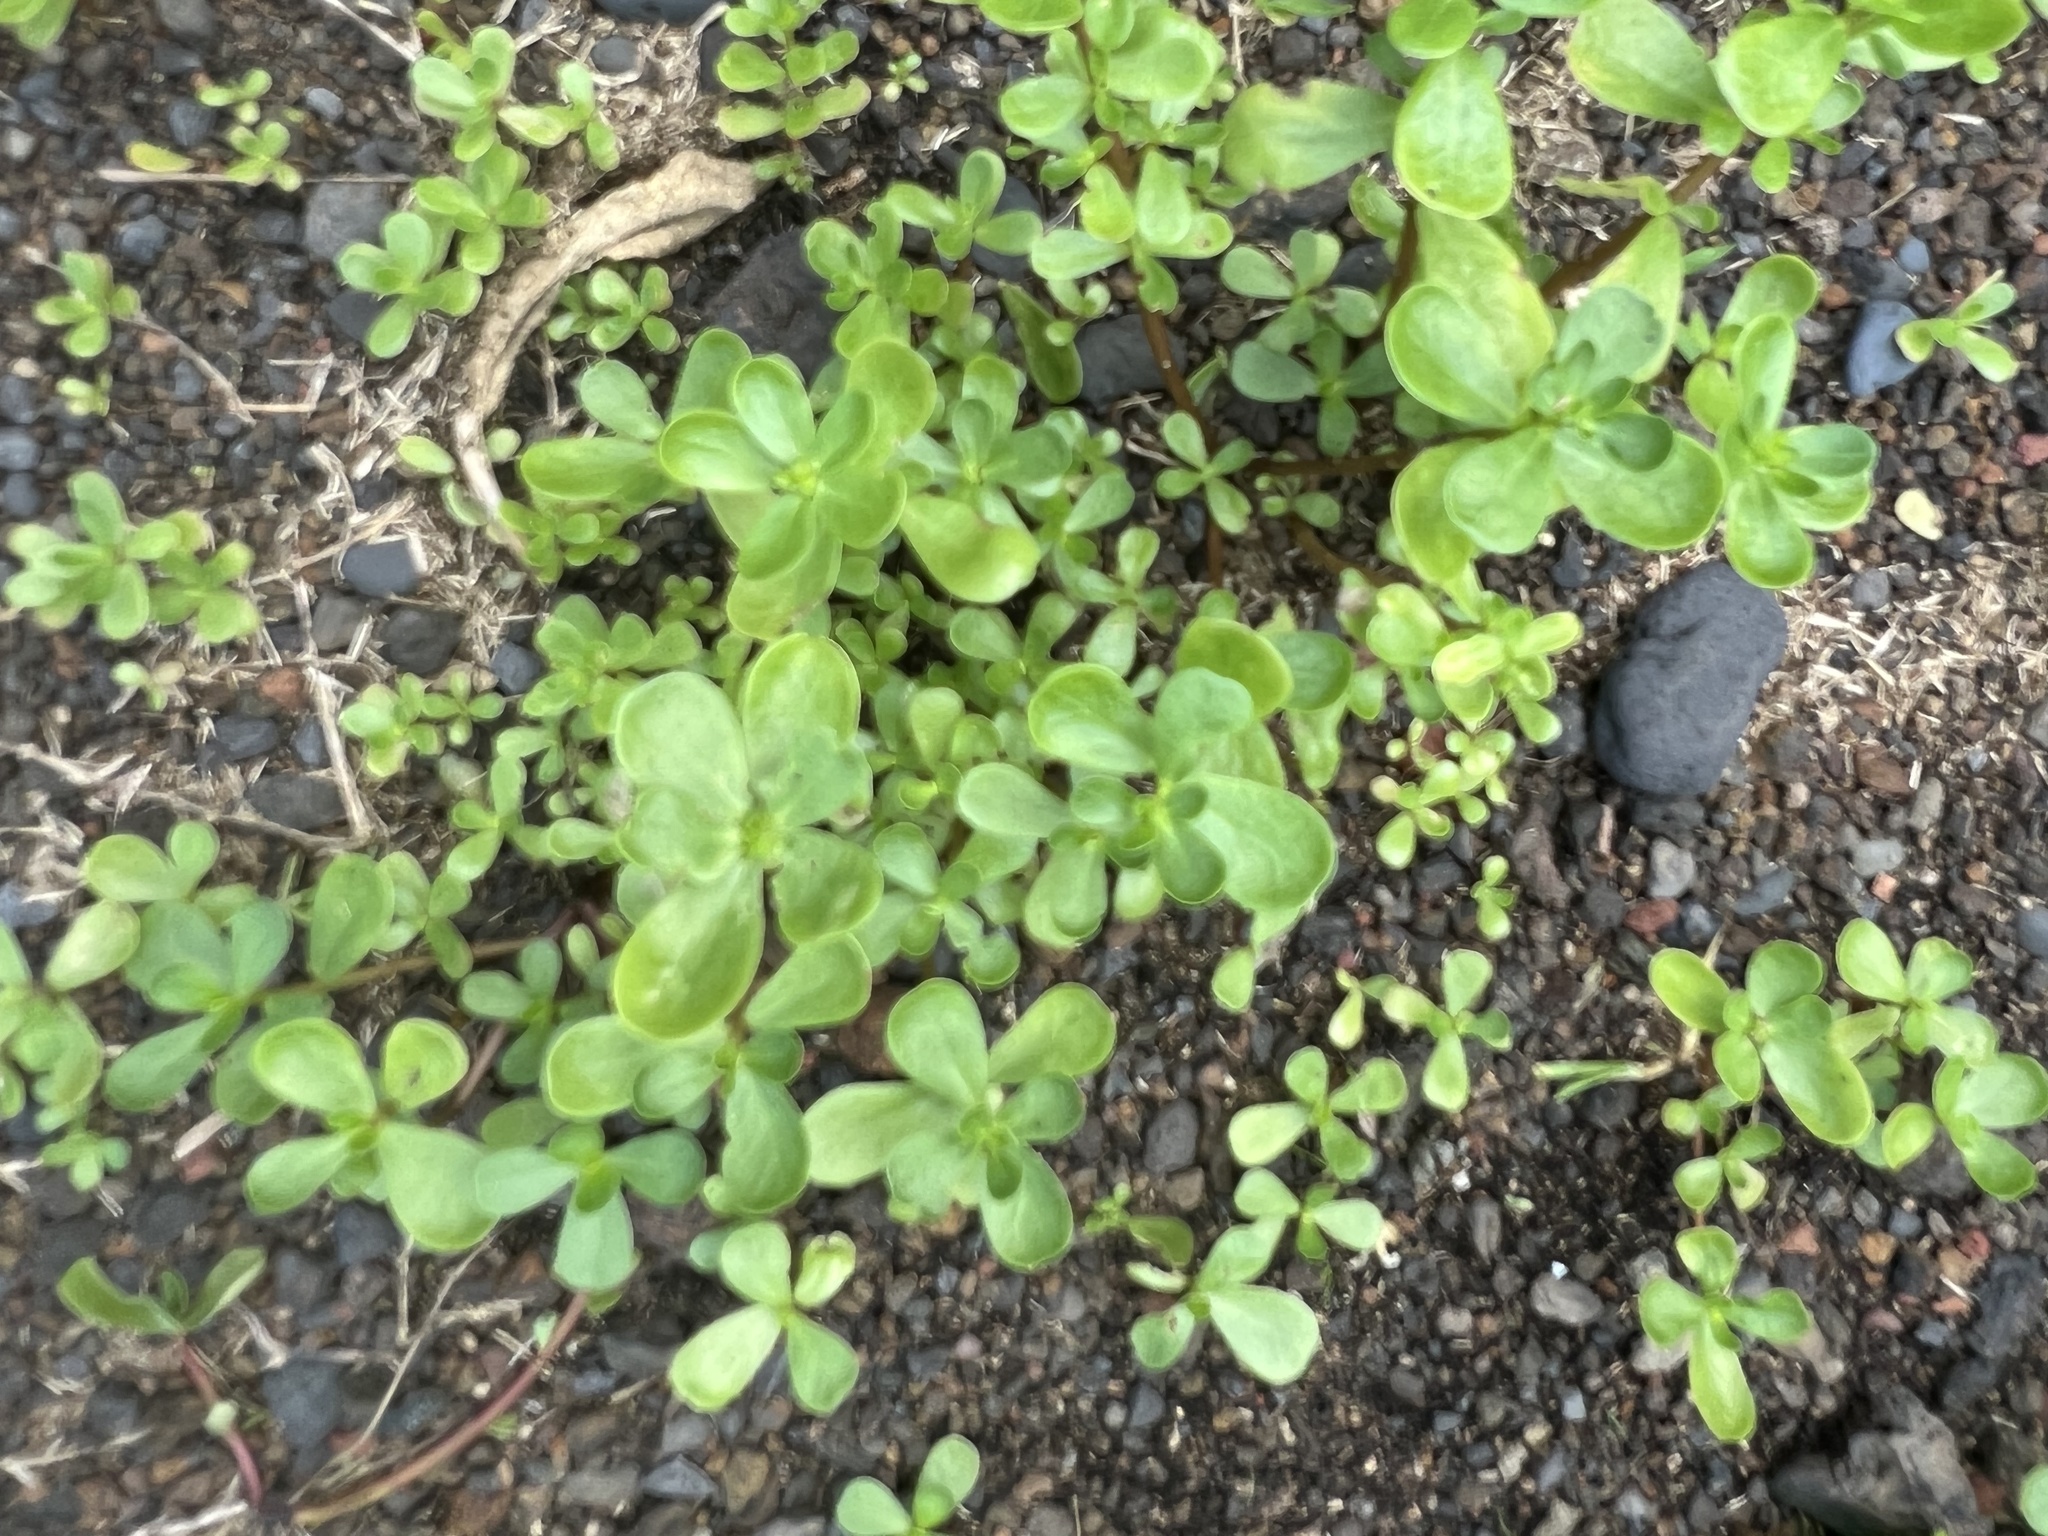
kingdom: Plantae
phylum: Tracheophyta
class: Magnoliopsida
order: Caryophyllales
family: Portulacaceae
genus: Portulaca
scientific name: Portulaca oleracea
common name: Common purslane
